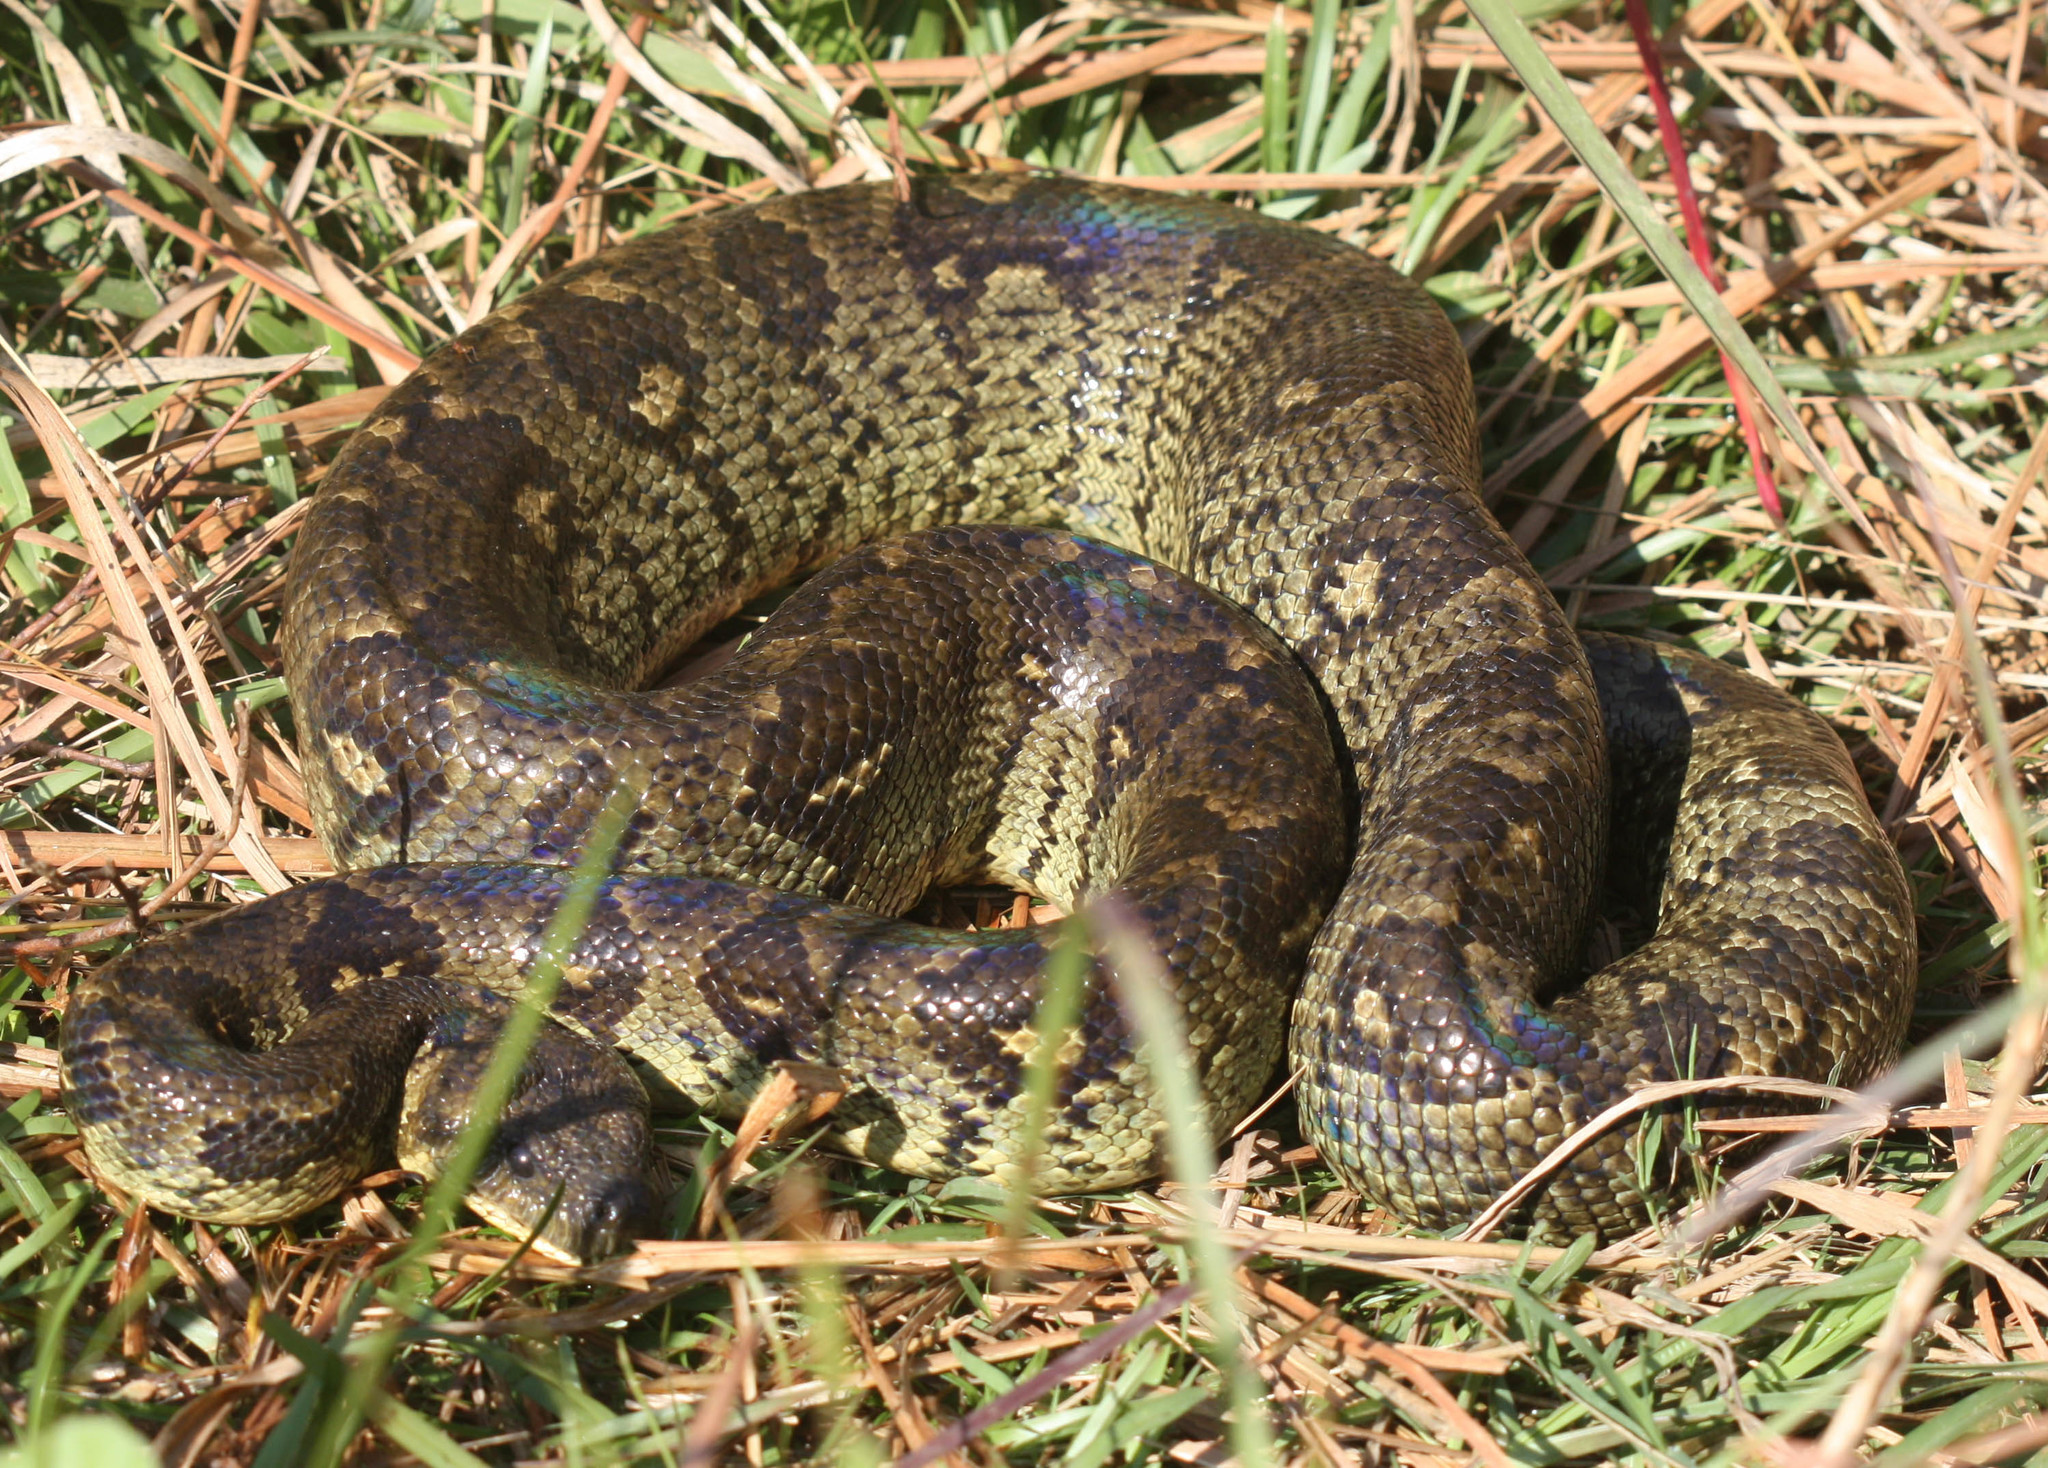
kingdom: Animalia
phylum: Chordata
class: Squamata
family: Boidae
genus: Sanzinia
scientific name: Sanzinia madagascariensis
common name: Madagascar tree boa
